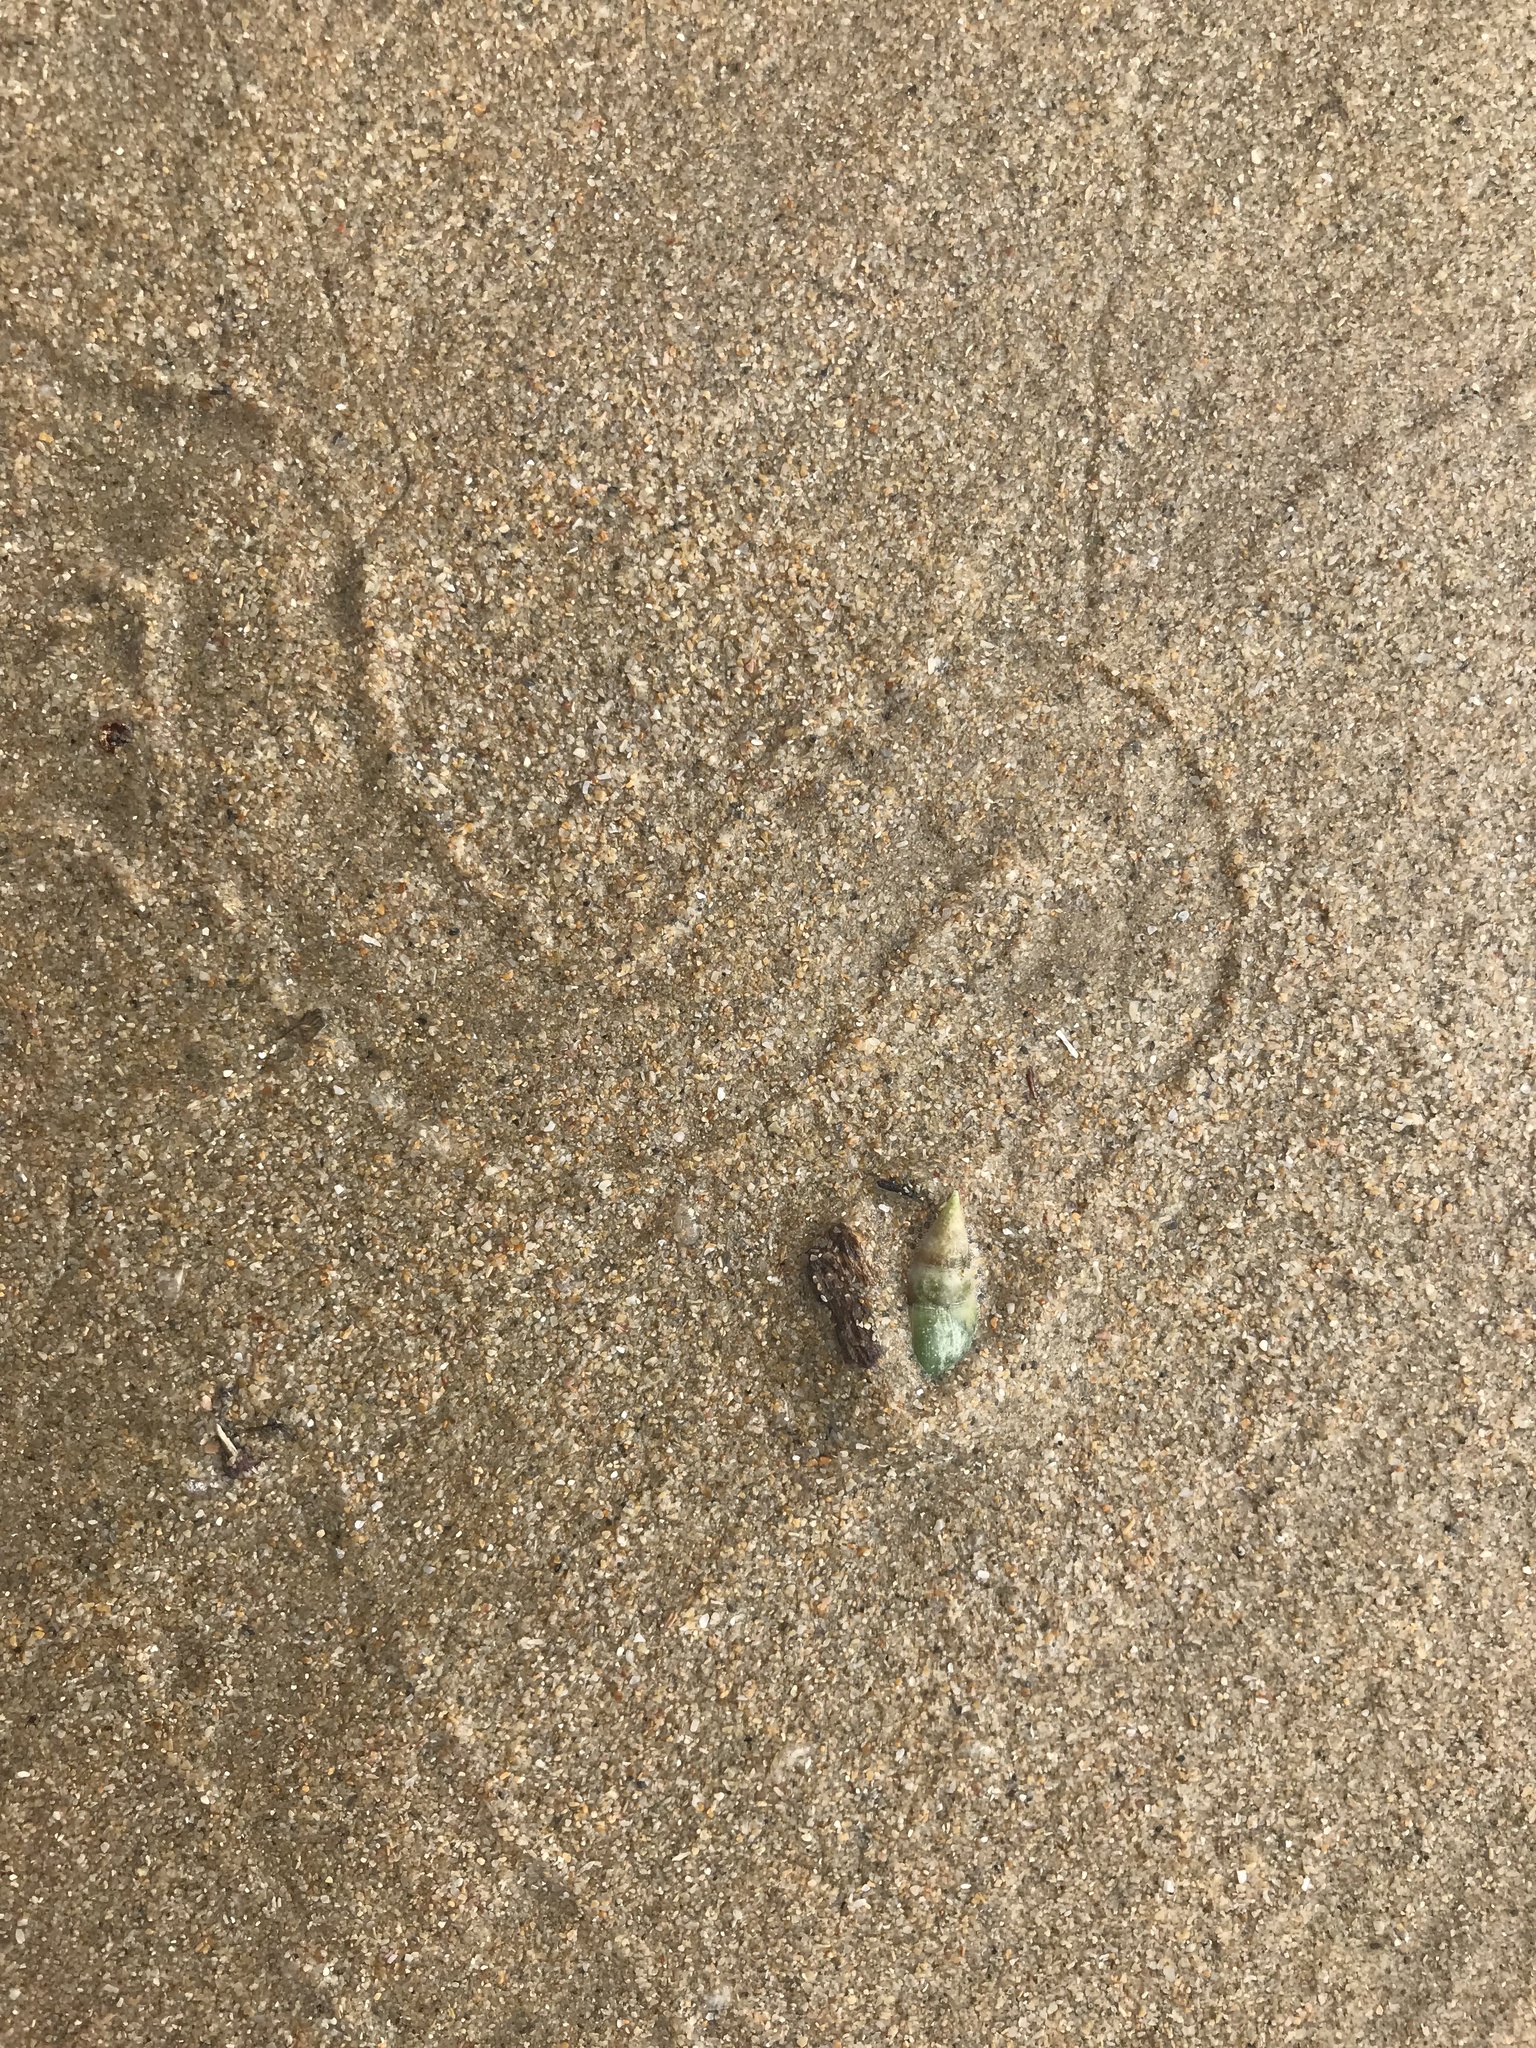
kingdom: Animalia
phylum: Mollusca
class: Gastropoda
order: Neogastropoda
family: Nassariidae
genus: Bullia
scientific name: Bullia rhodostoma
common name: Smooth plough shell
